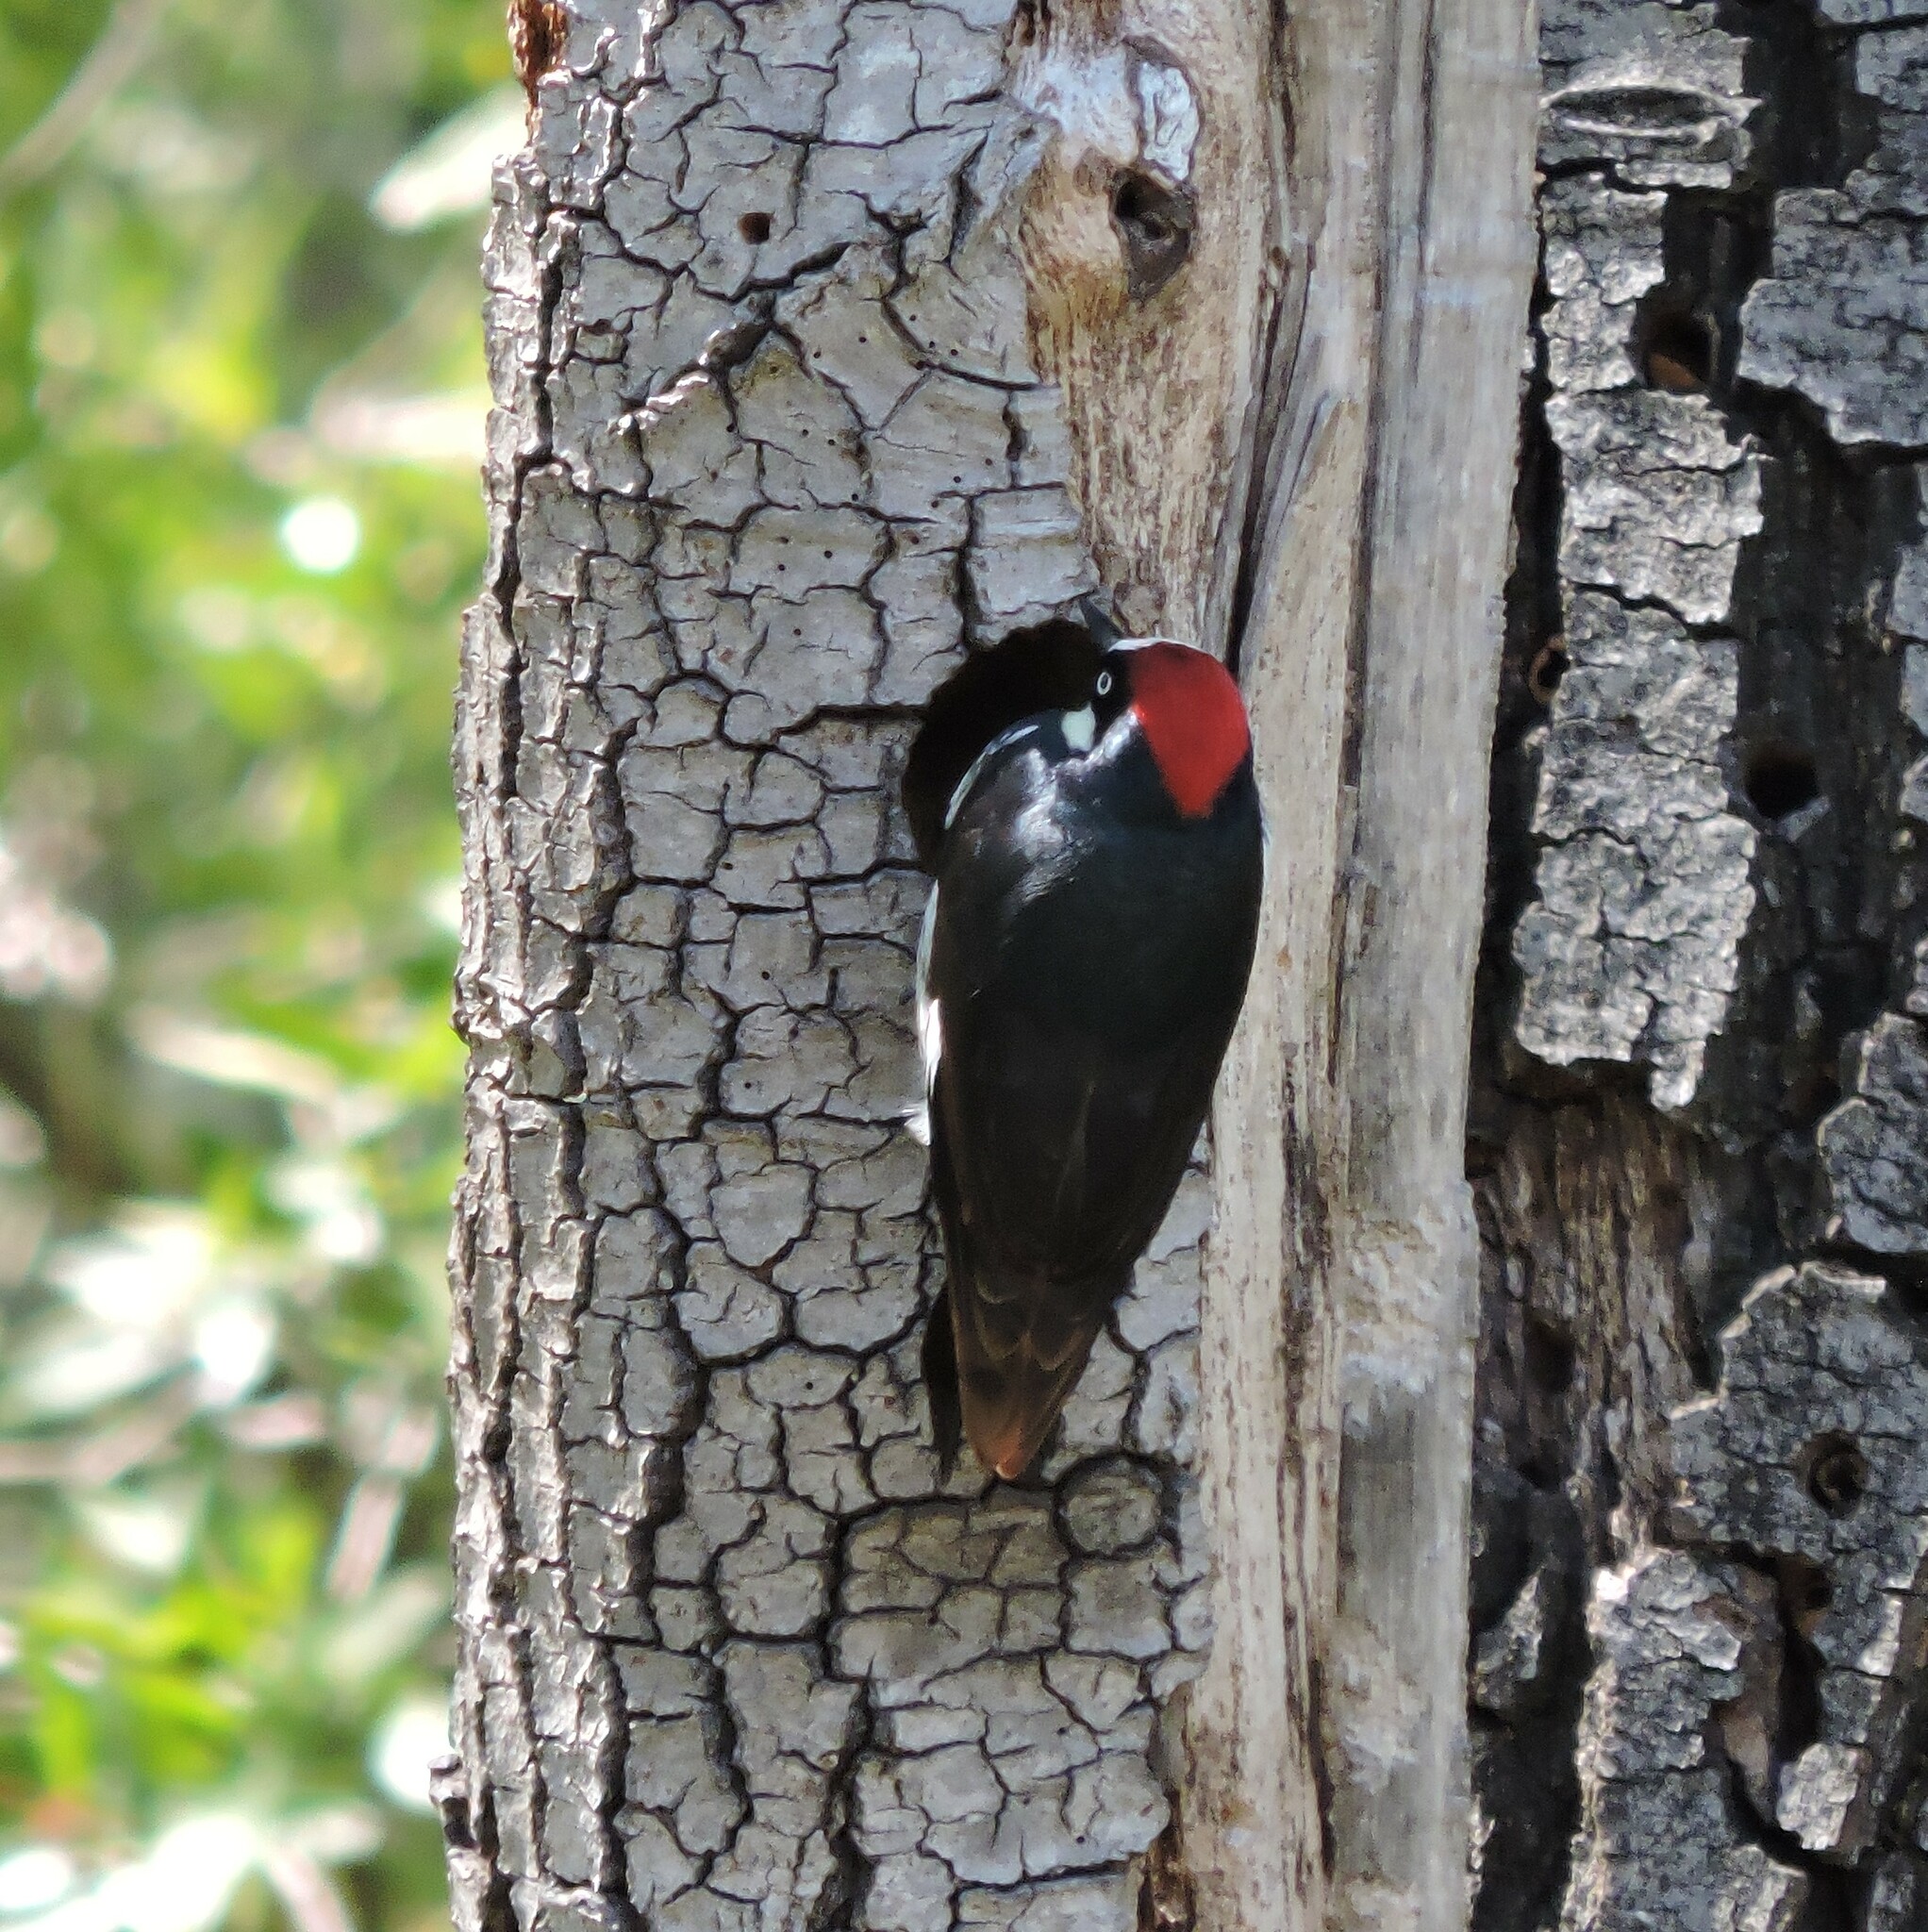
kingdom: Animalia
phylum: Chordata
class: Aves
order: Piciformes
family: Picidae
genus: Melanerpes
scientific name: Melanerpes formicivorus
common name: Acorn woodpecker
